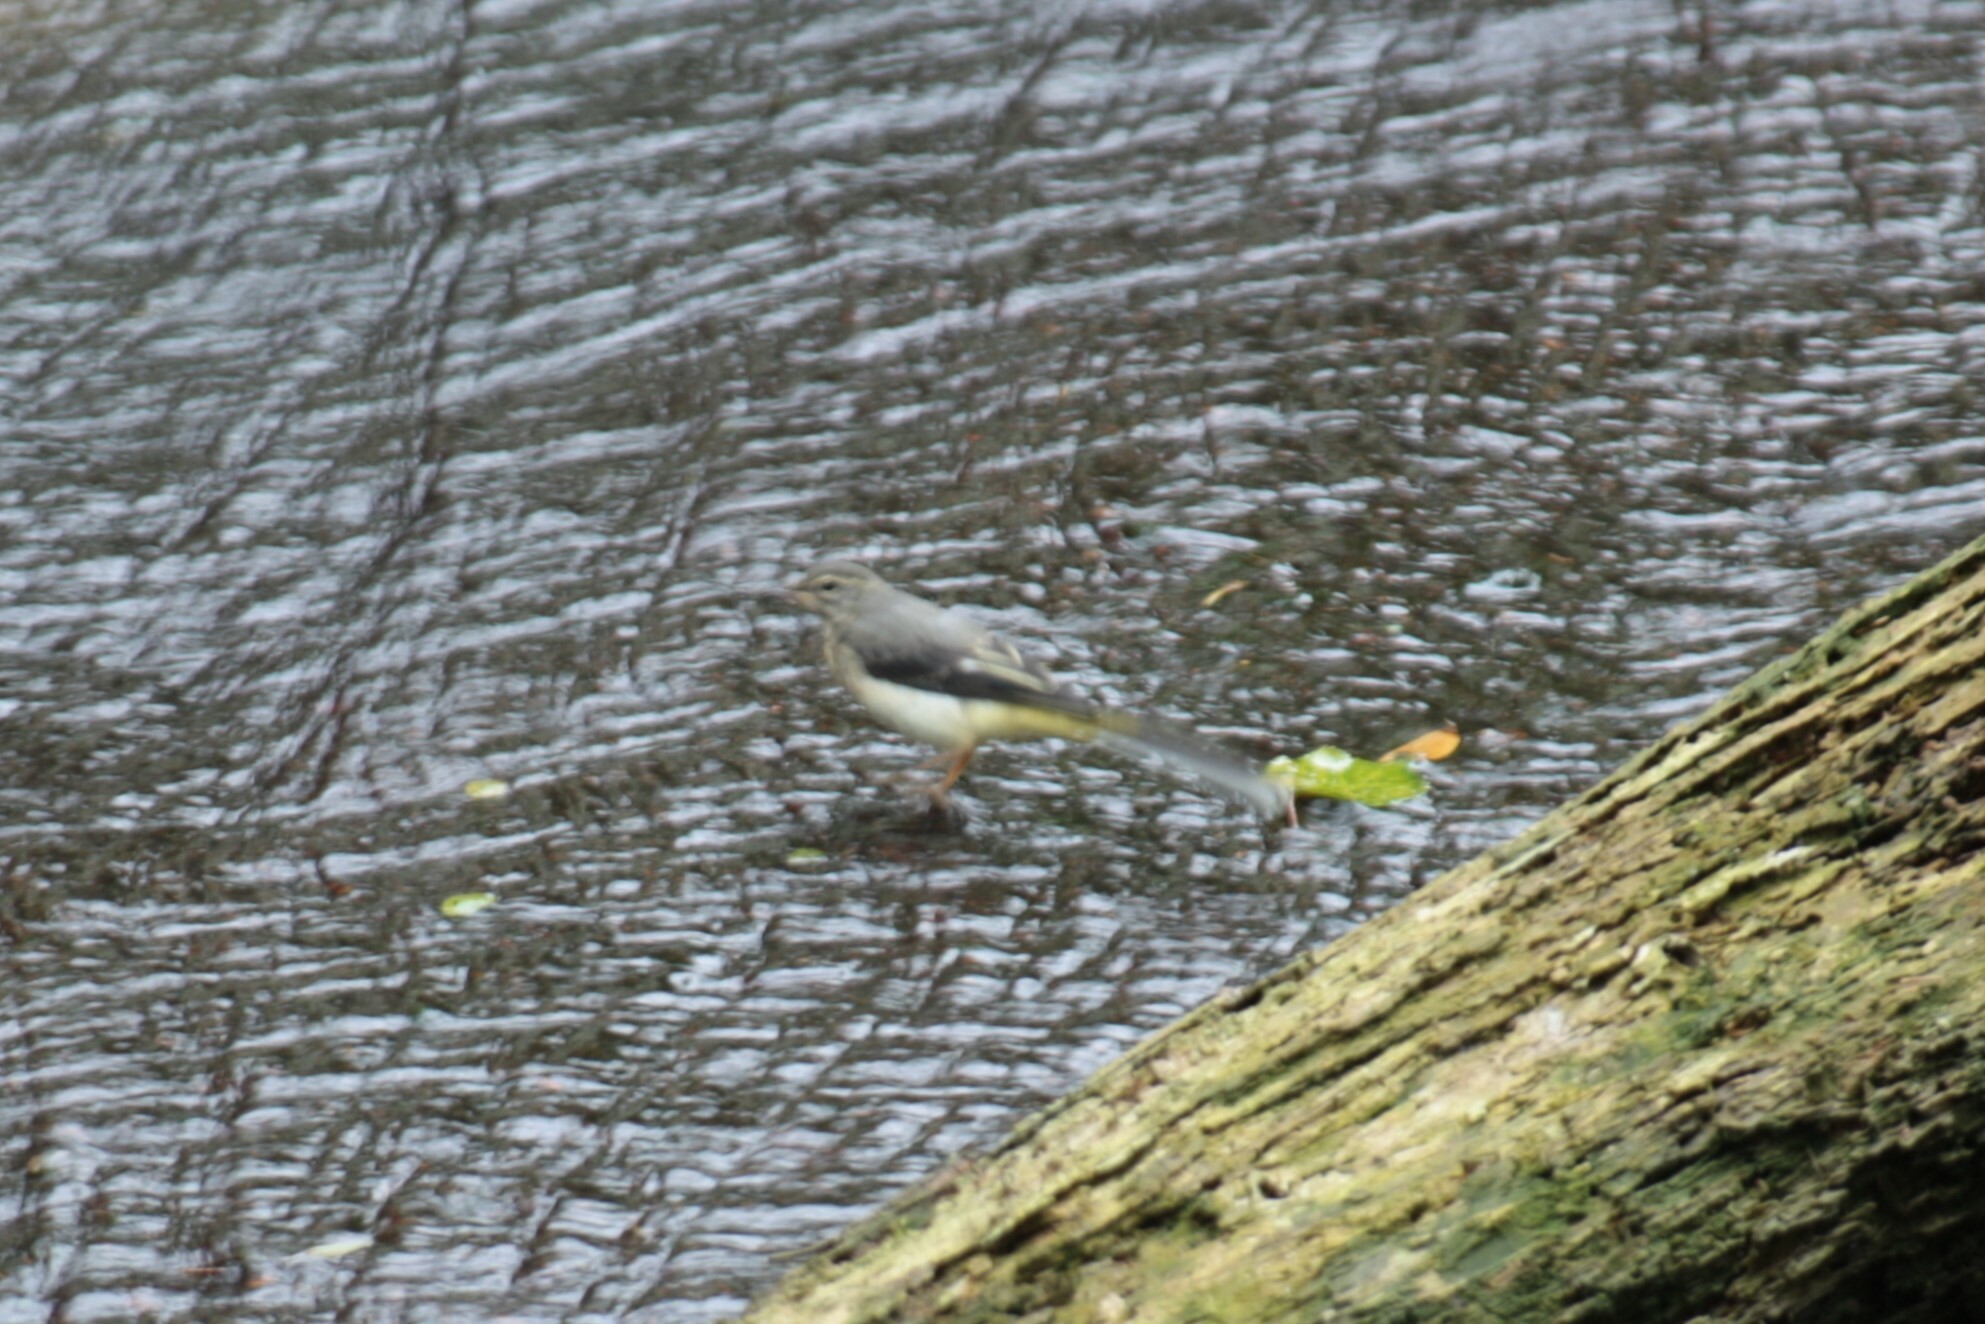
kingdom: Animalia
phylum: Chordata
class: Aves
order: Passeriformes
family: Motacillidae
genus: Motacilla
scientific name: Motacilla cinerea
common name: Grey wagtail
